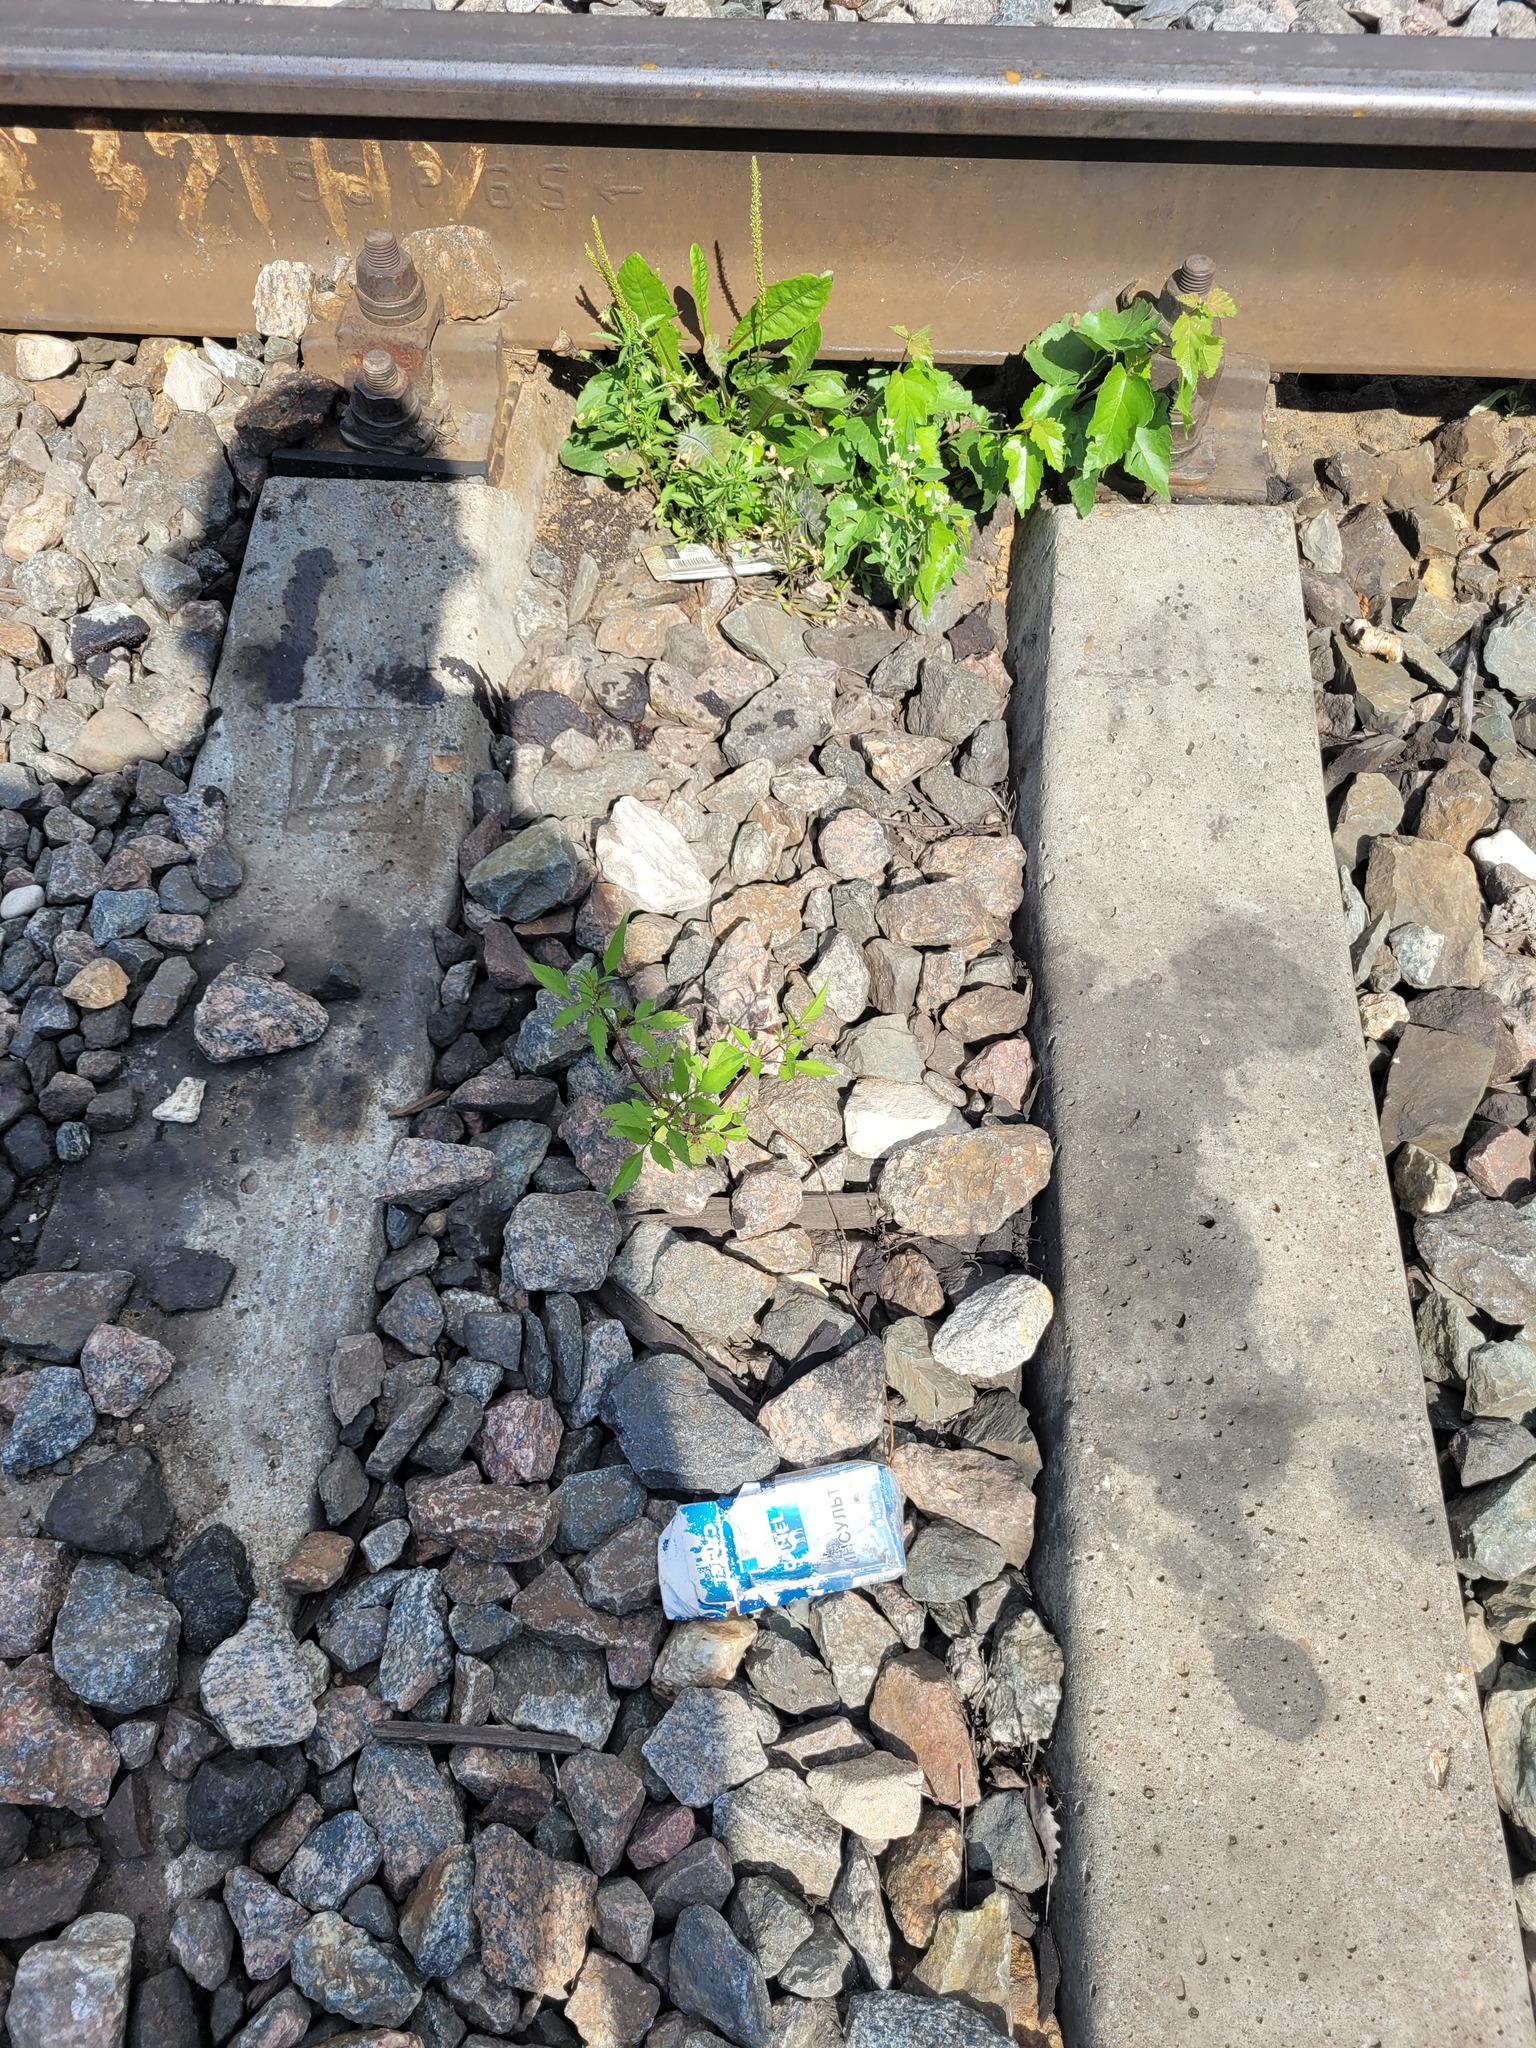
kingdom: Plantae
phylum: Tracheophyta
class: Magnoliopsida
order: Asterales
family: Asteraceae
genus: Bidens
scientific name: Bidens frondosa
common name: Beggarticks
